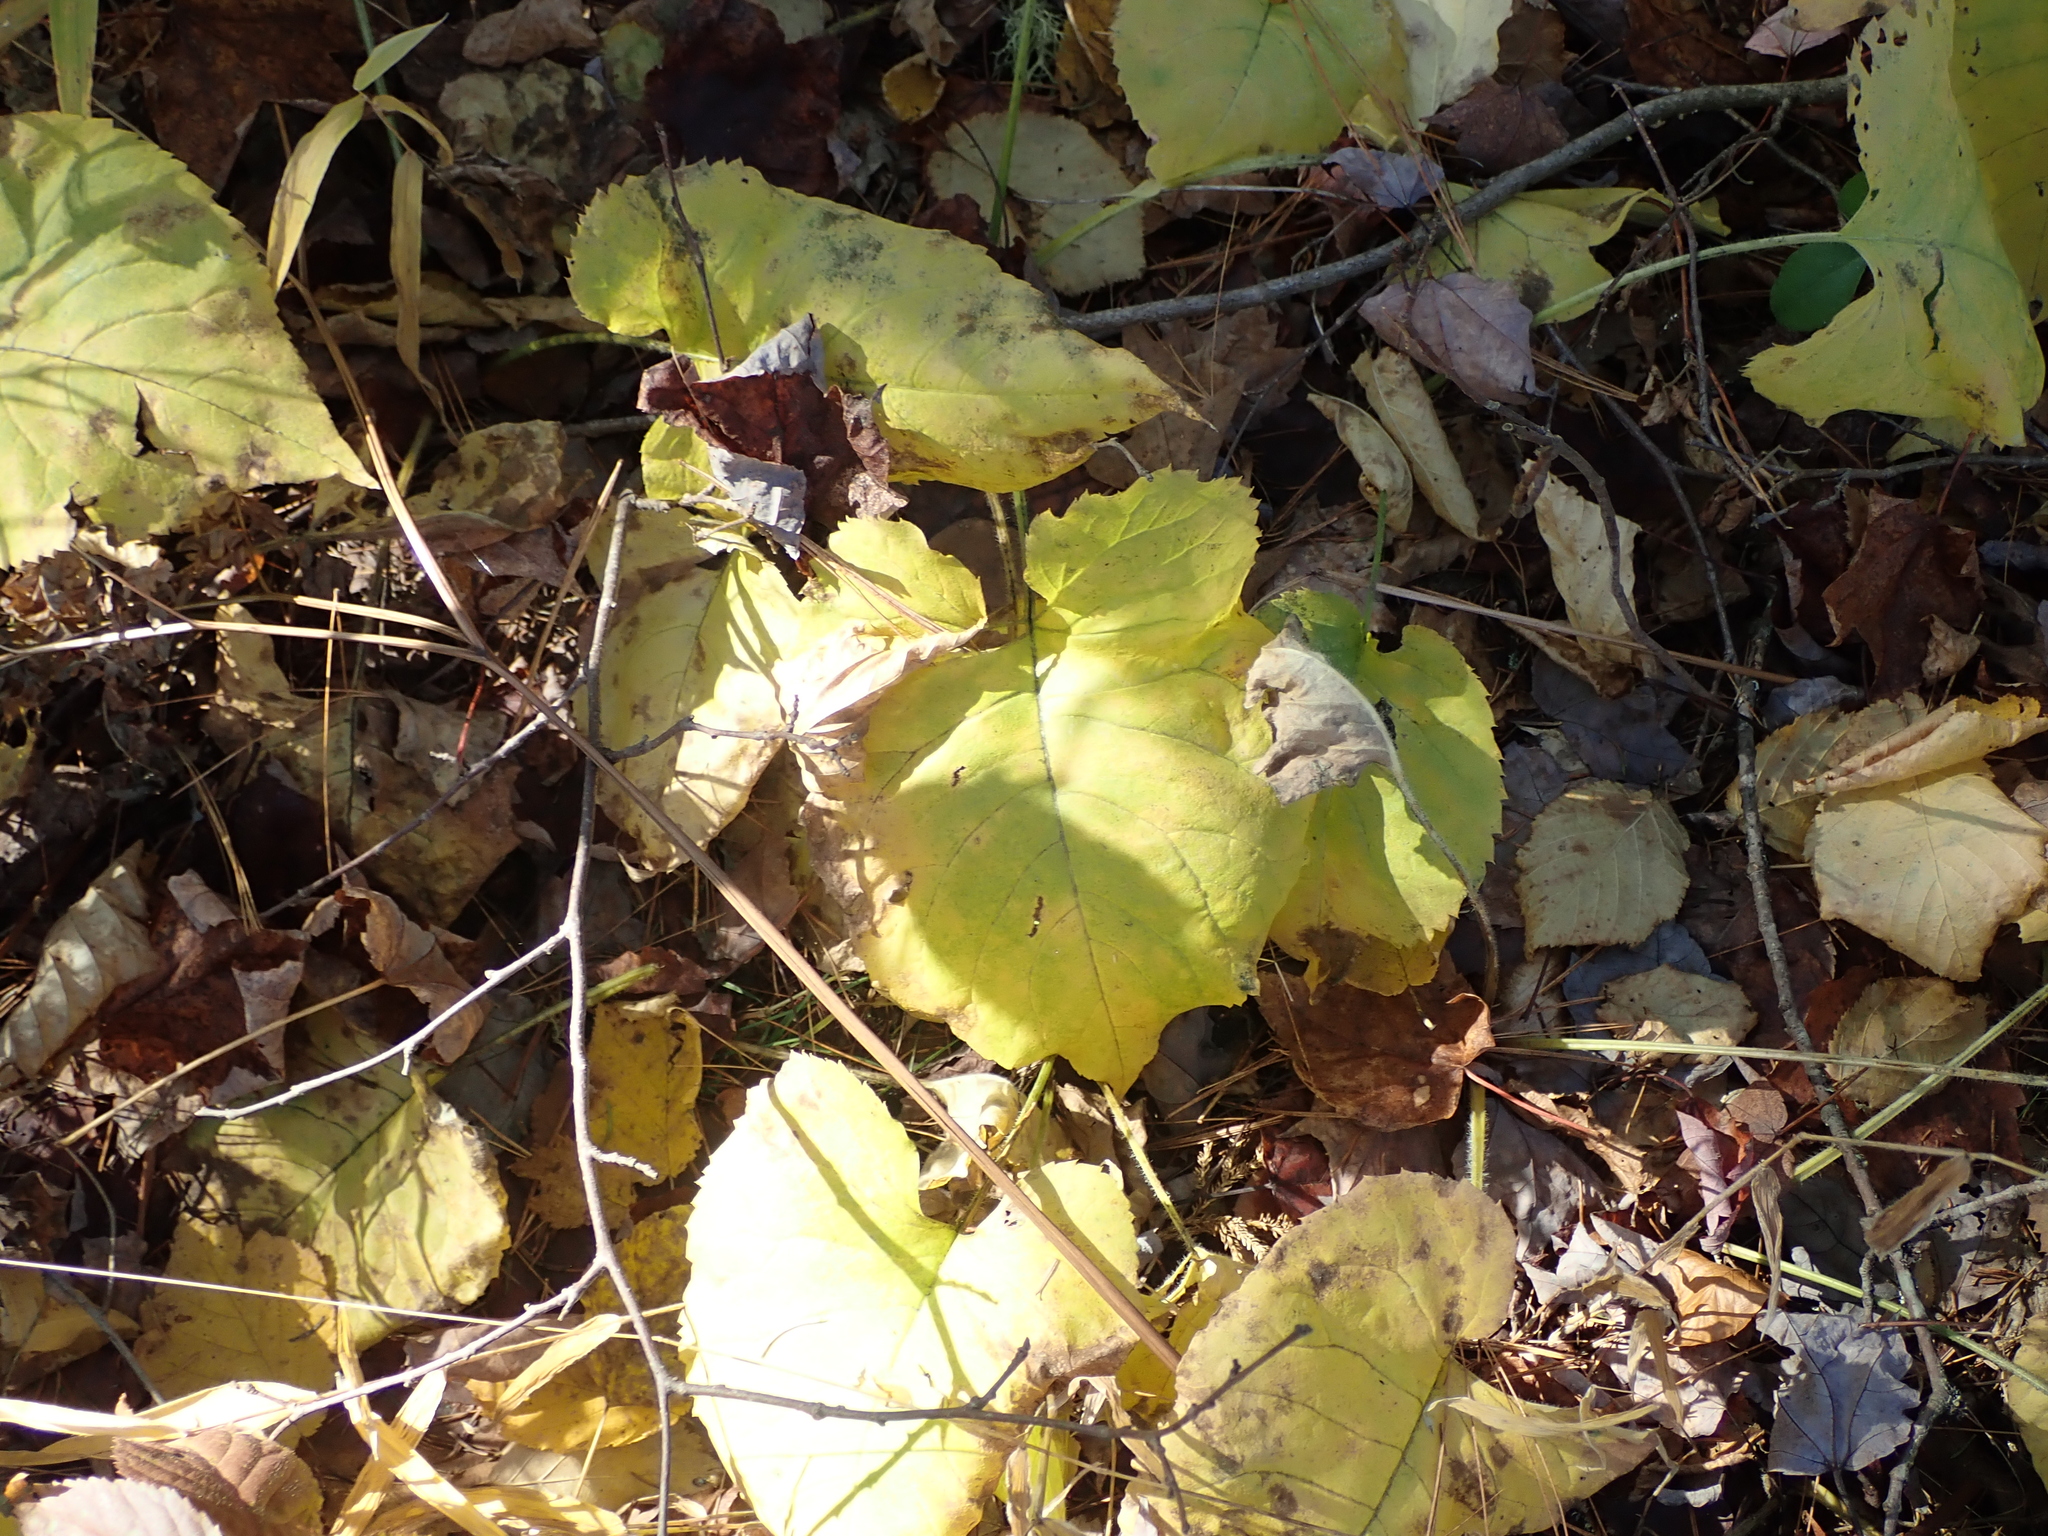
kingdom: Plantae
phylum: Tracheophyta
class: Magnoliopsida
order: Asterales
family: Asteraceae
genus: Eurybia
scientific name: Eurybia macrophylla
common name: Big-leaved aster
